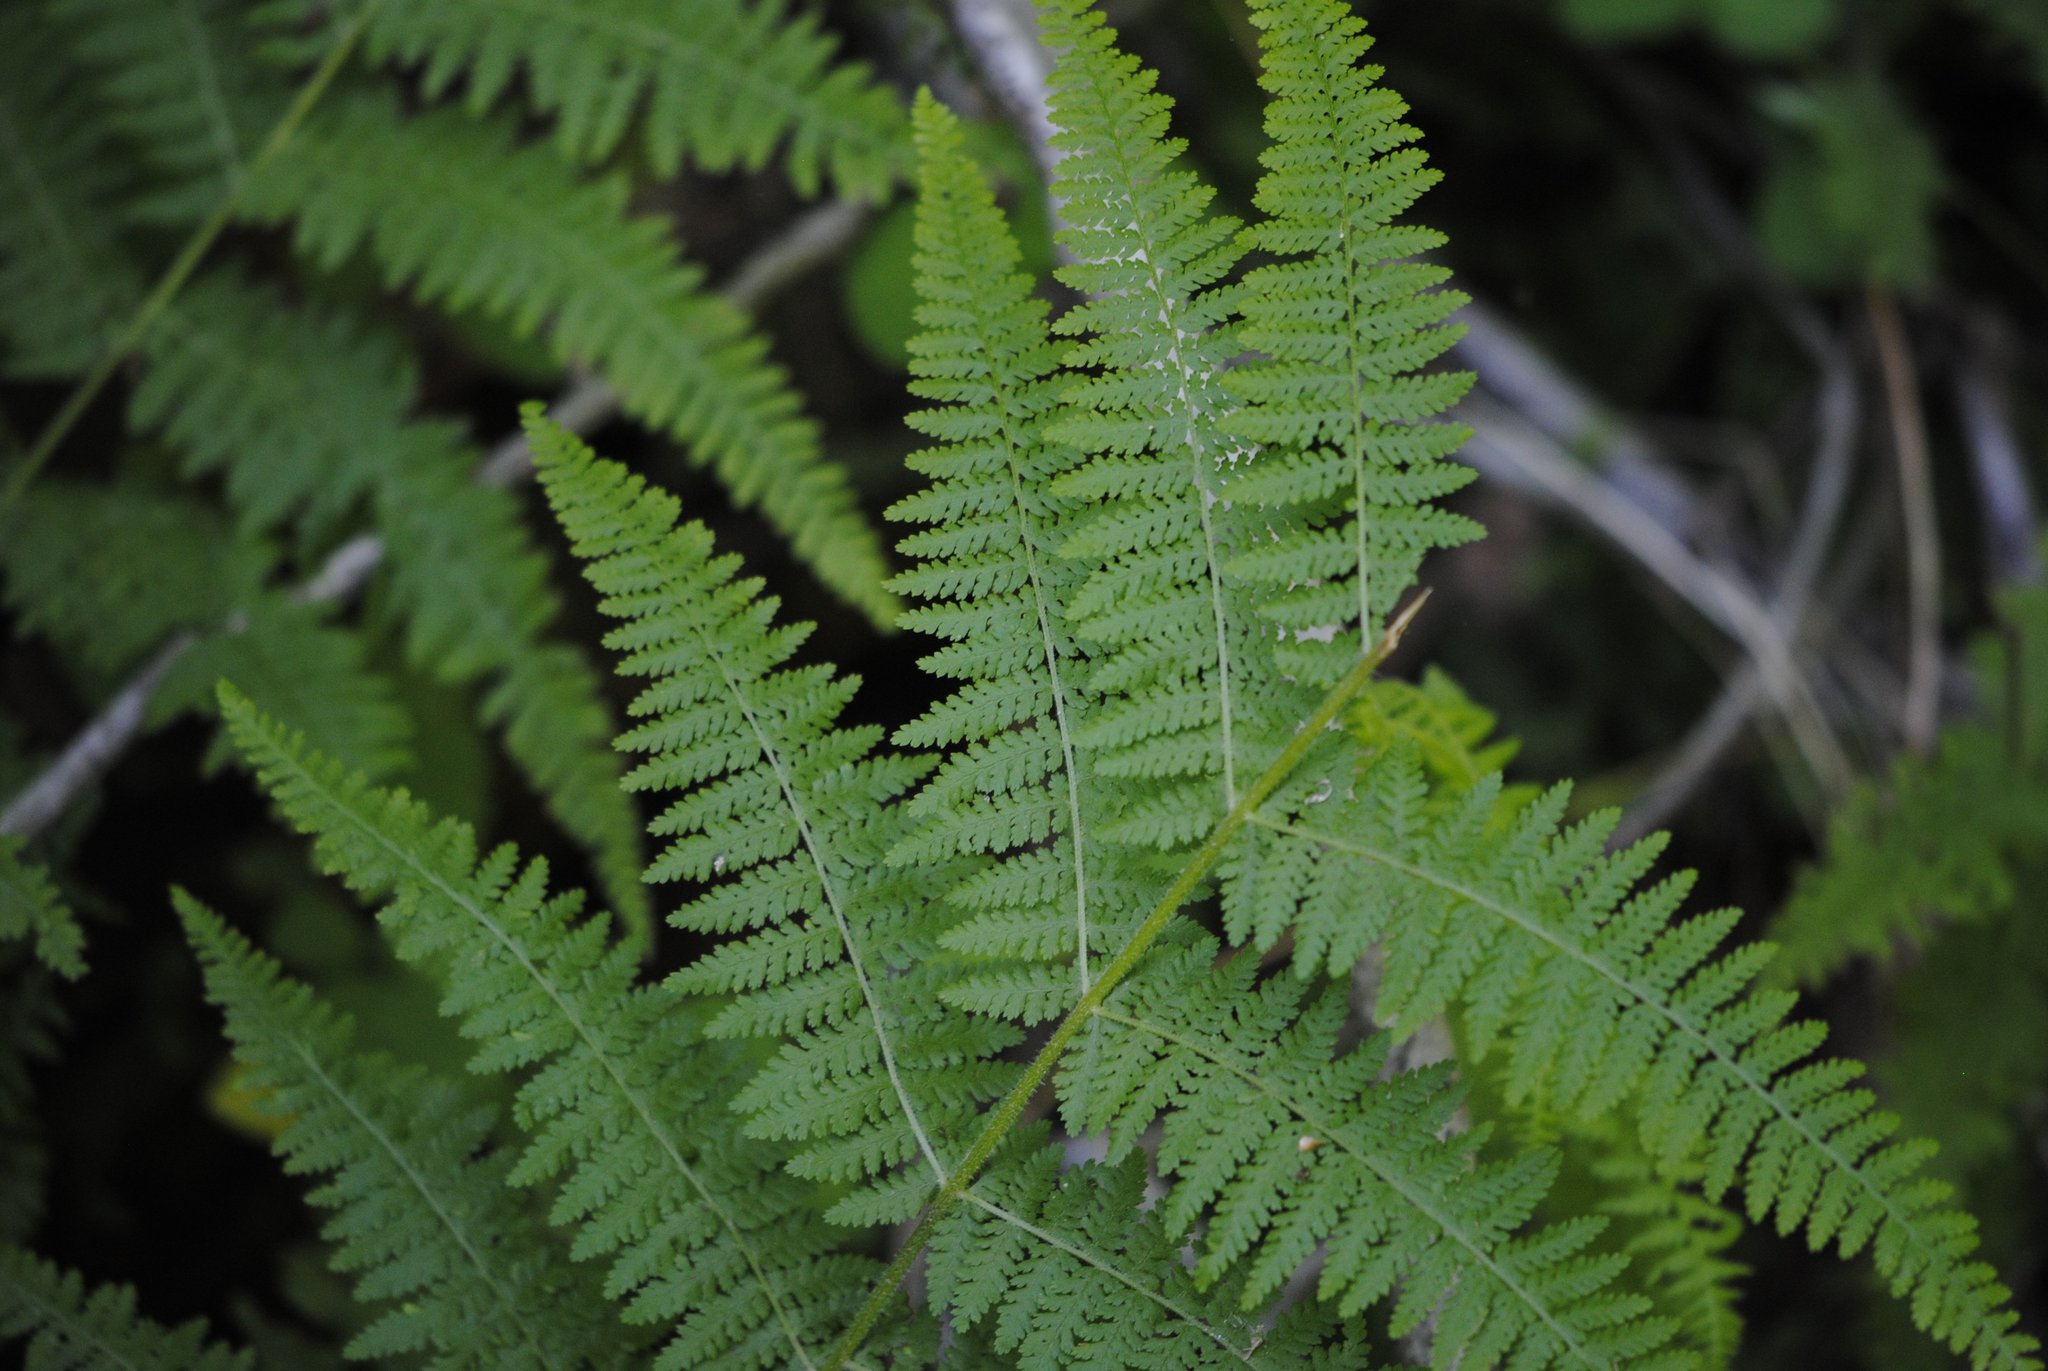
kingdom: Plantae
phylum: Tracheophyta
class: Polypodiopsida
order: Polypodiales
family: Dennstaedtiaceae
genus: Sitobolium
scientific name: Sitobolium punctilobum
